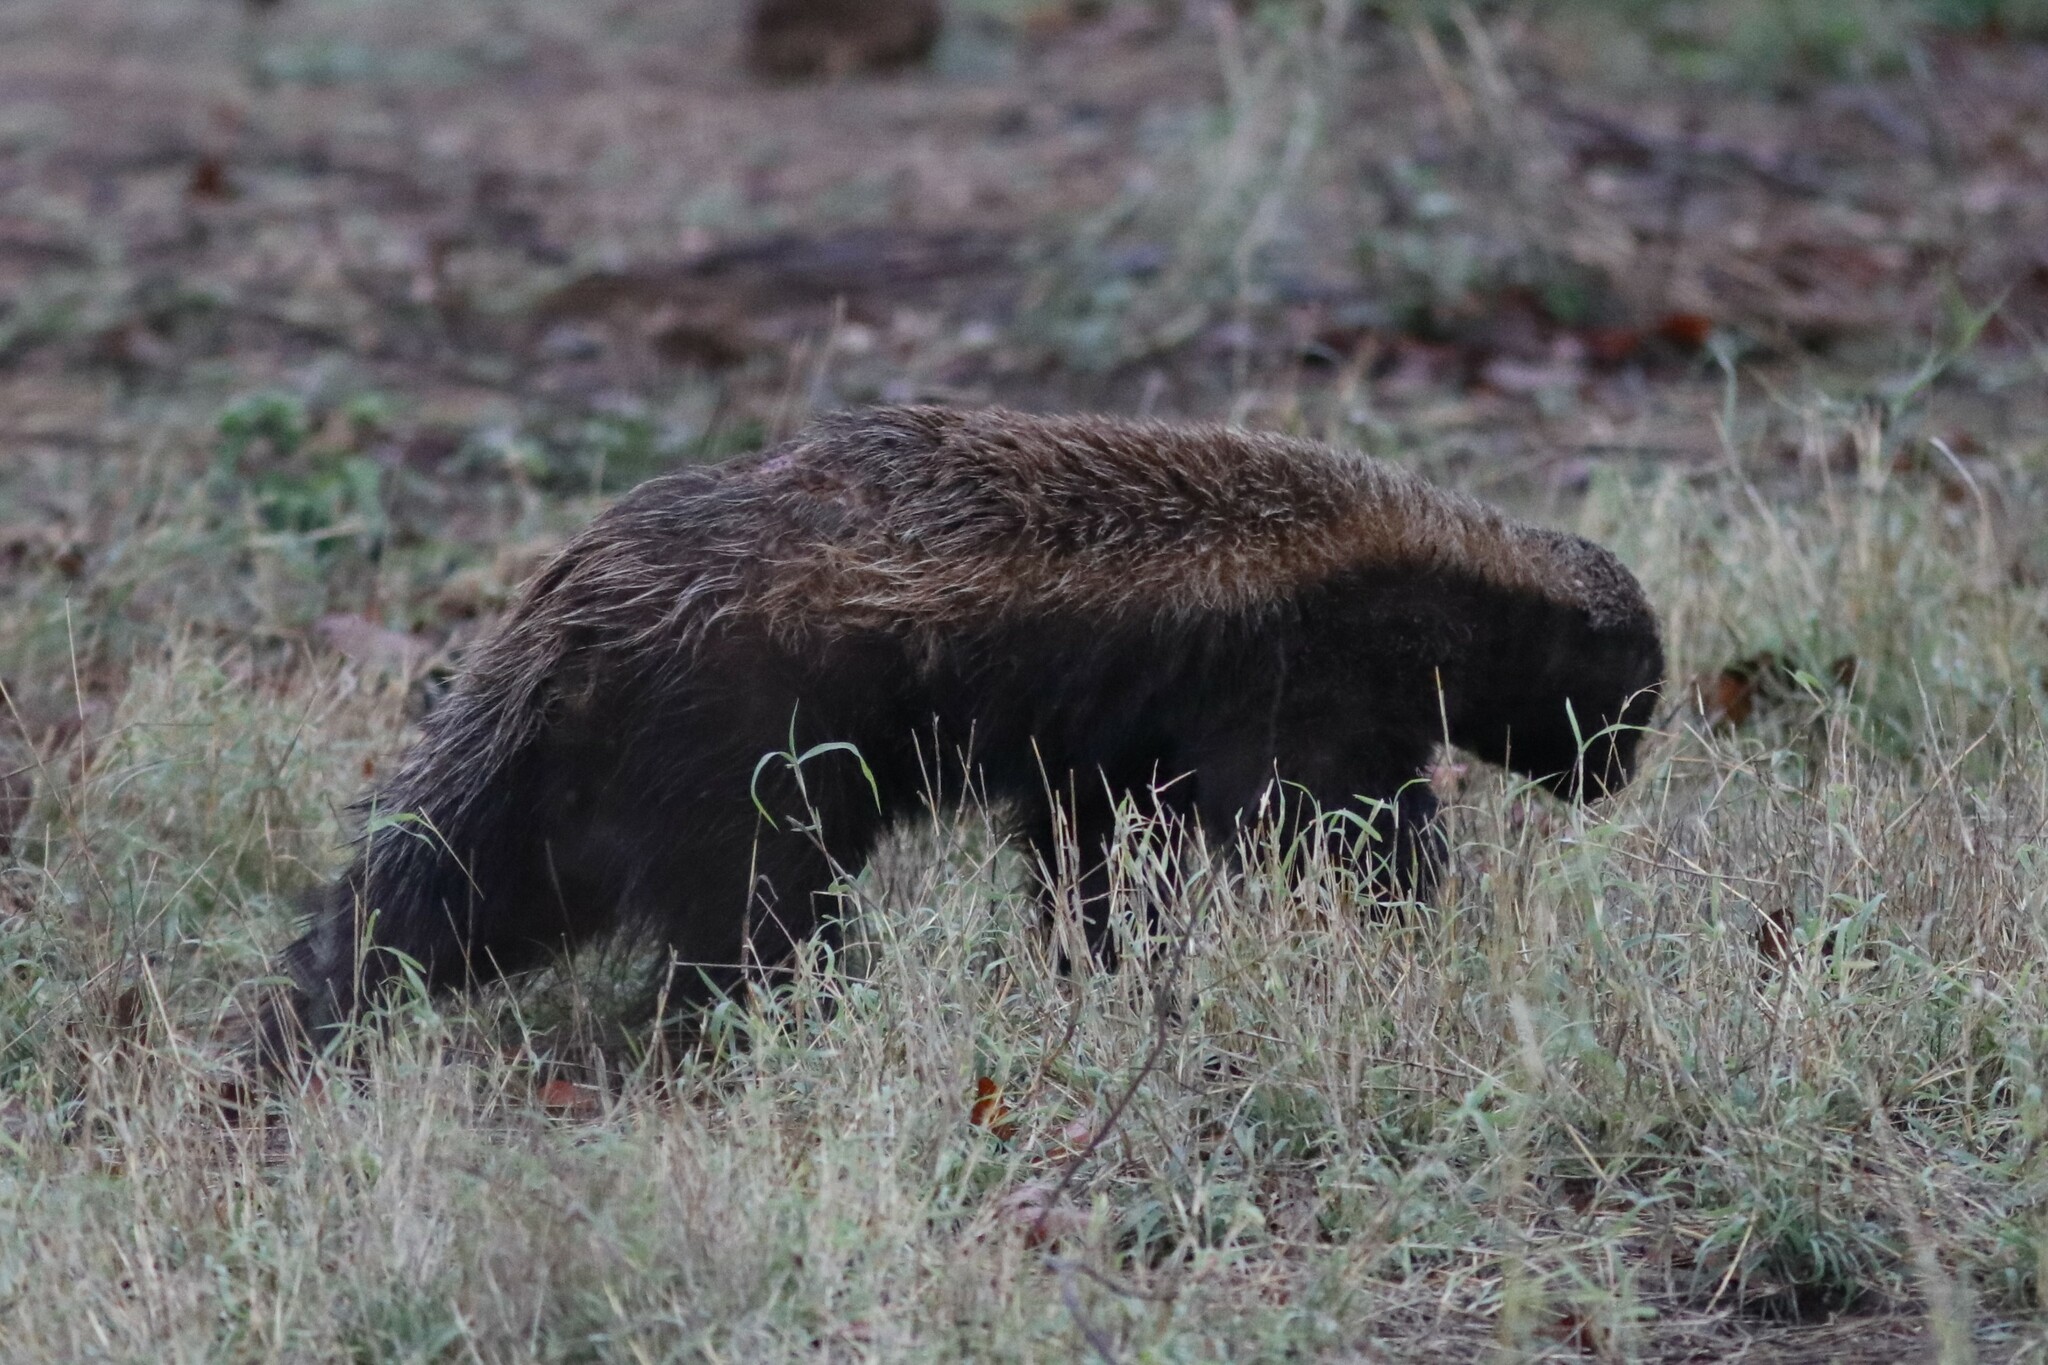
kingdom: Animalia
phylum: Chordata
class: Mammalia
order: Carnivora
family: Mustelidae
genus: Mellivora
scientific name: Mellivora capensis
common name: Honey badger
